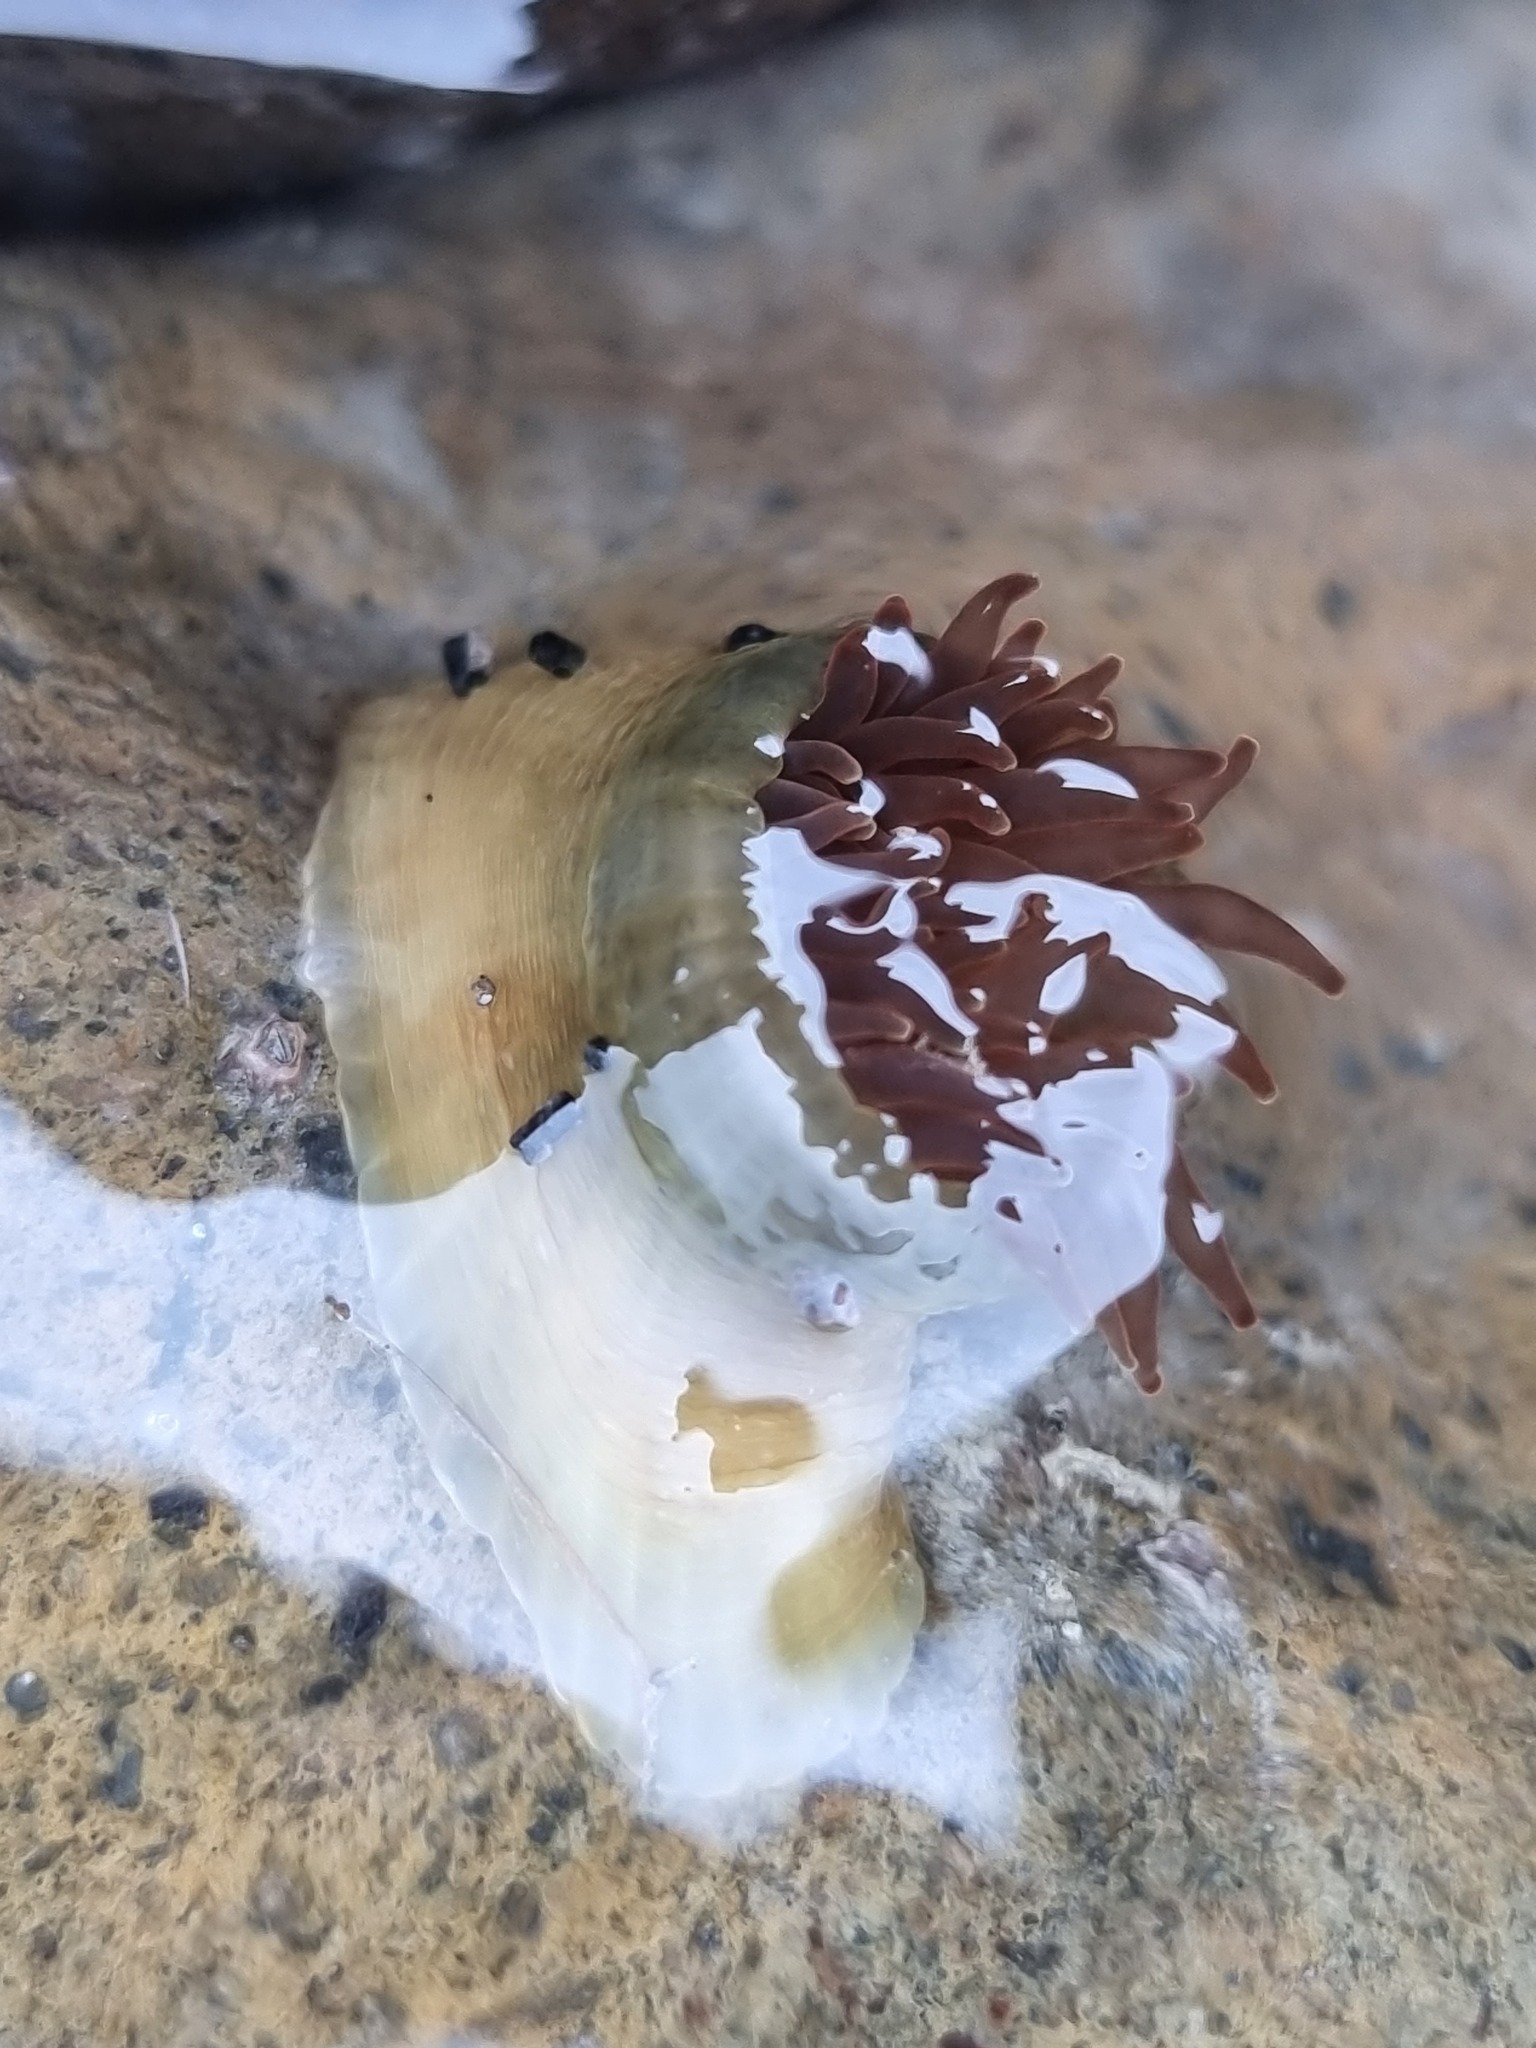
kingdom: Animalia
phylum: Cnidaria
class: Anthozoa
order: Actiniaria
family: Actiniidae
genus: Isactinia
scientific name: Isactinia olivacea
